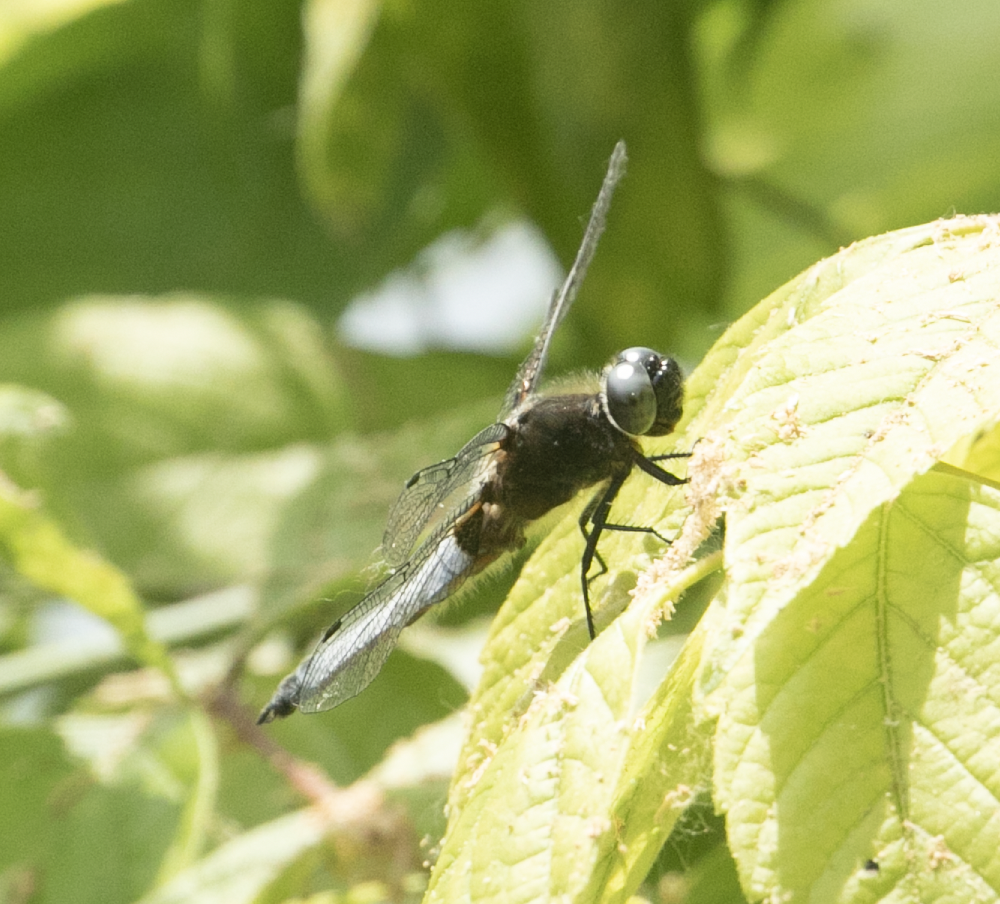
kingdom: Animalia
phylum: Arthropoda
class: Insecta
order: Odonata
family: Libellulidae
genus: Libellula
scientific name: Libellula fulva
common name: Blue chaser
